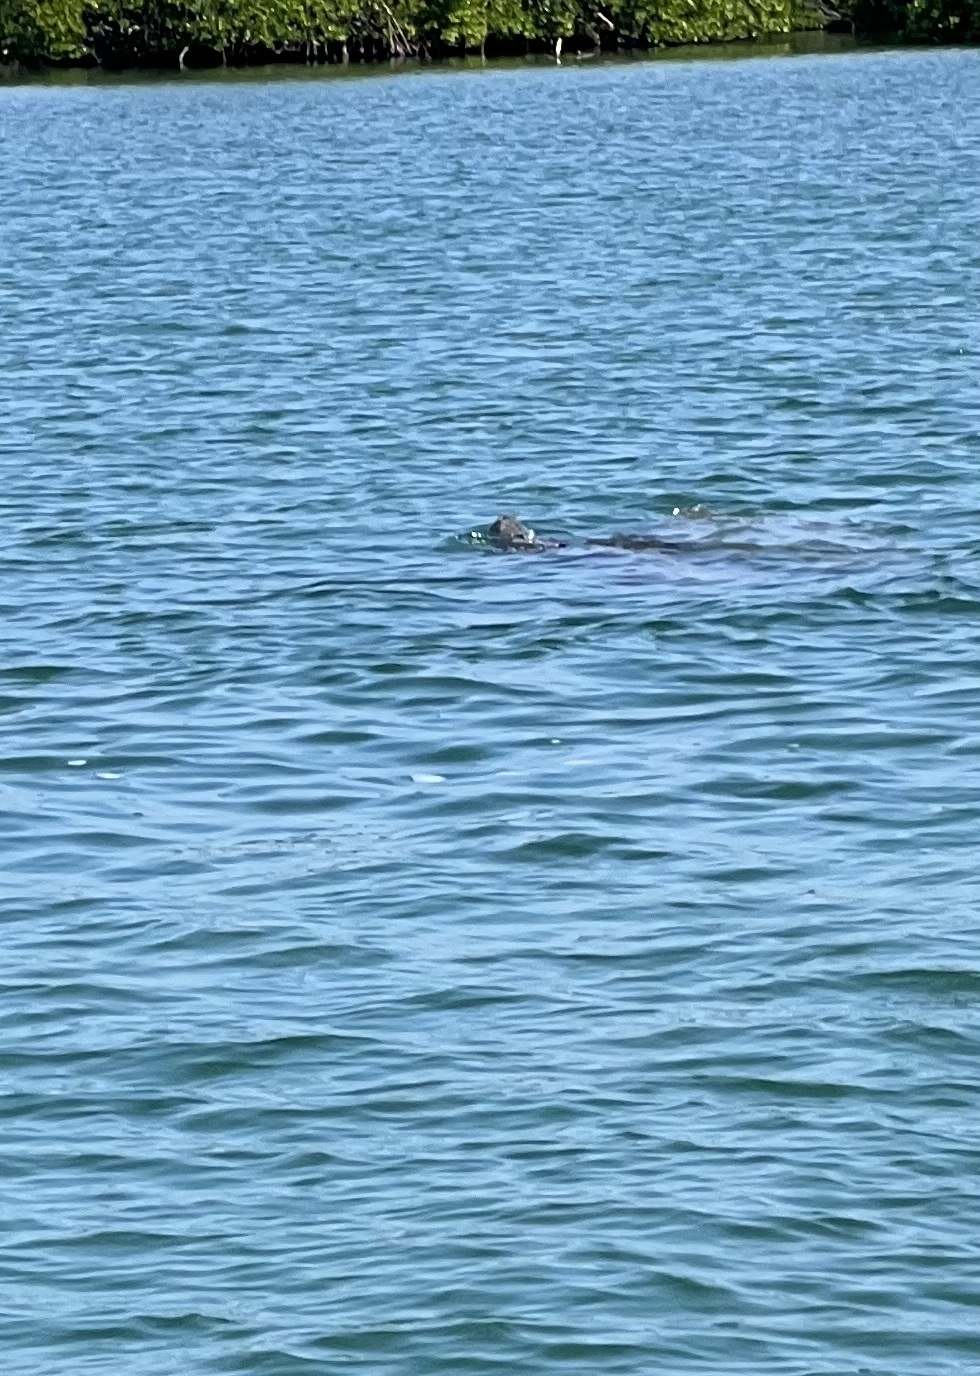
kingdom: Animalia
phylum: Chordata
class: Mammalia
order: Sirenia
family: Trichechidae
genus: Trichechus
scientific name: Trichechus manatus
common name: West indian manatee
